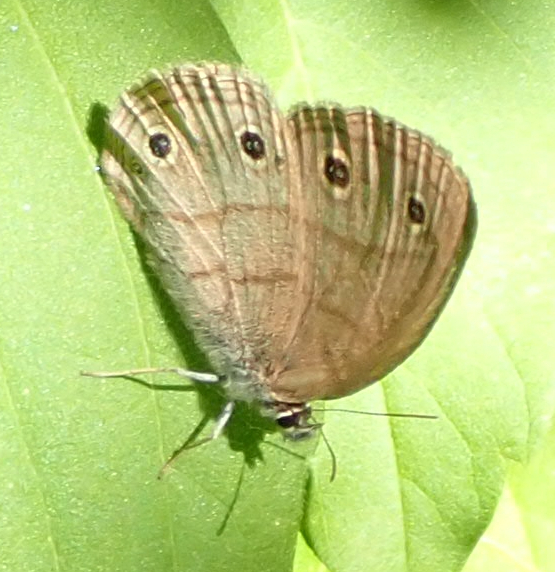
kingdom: Animalia
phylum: Arthropoda
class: Insecta
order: Lepidoptera
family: Nymphalidae
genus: Euptychia
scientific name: Euptychia cymela
